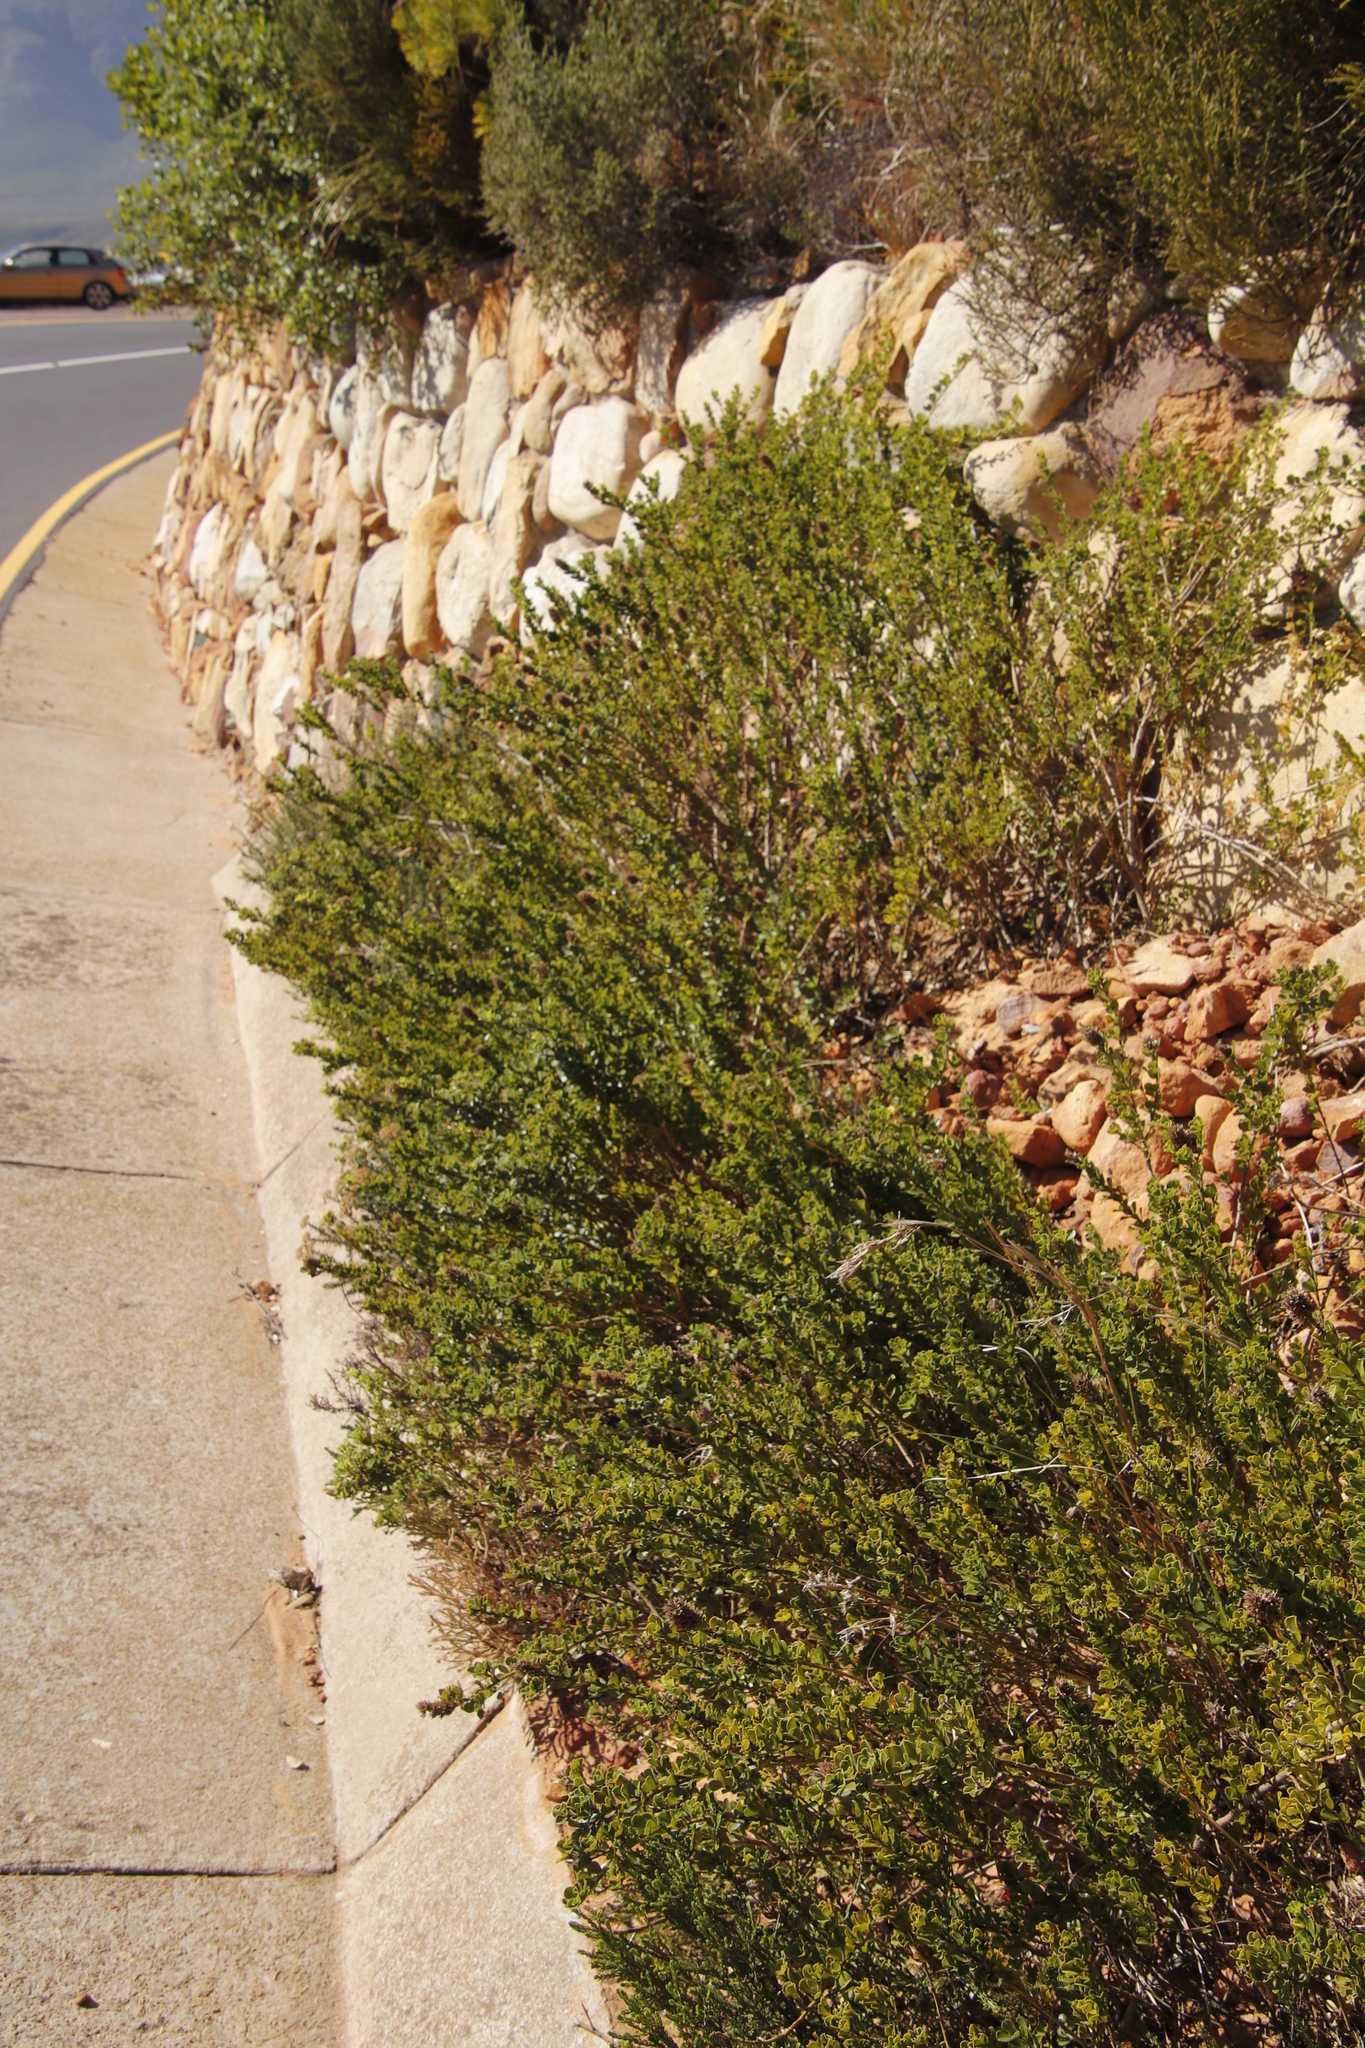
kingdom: Plantae
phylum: Tracheophyta
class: Magnoliopsida
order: Fabales
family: Fabaceae
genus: Psoralea
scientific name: Psoralea bracteolata
